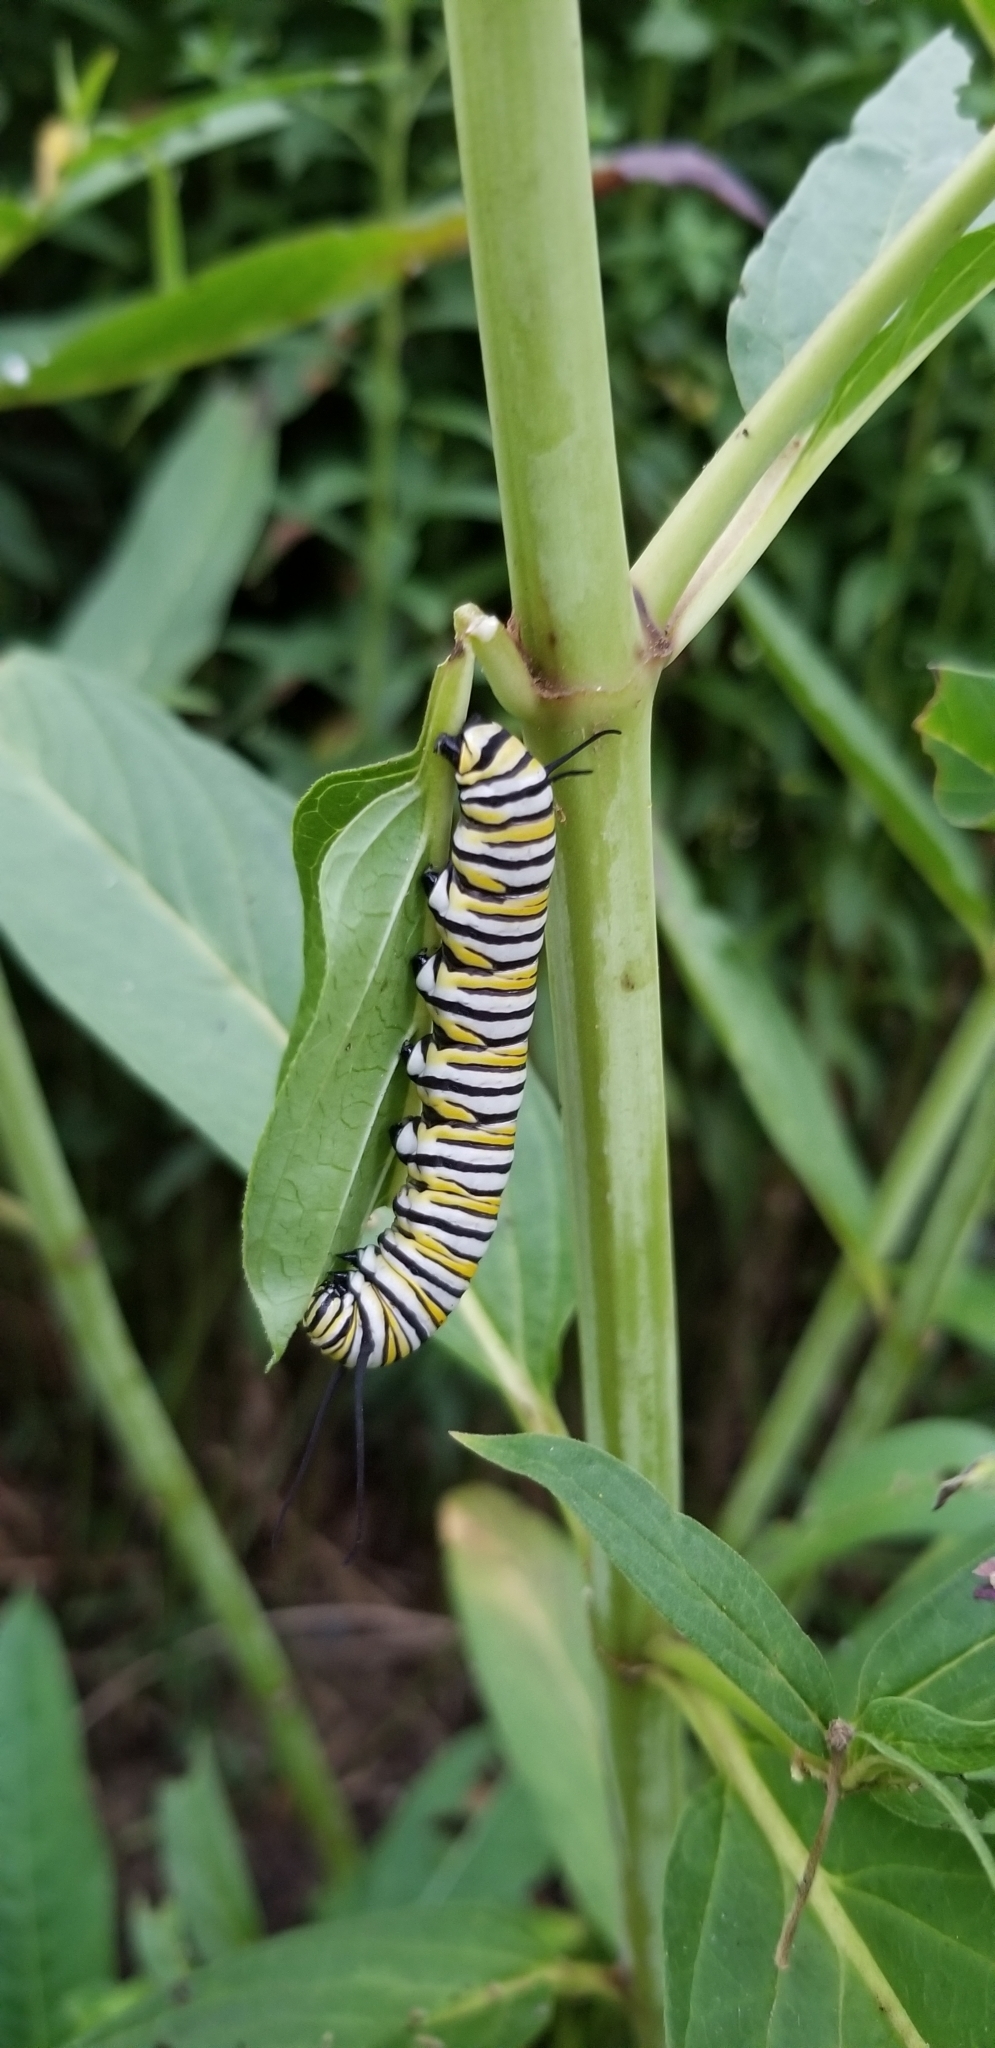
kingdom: Animalia
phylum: Arthropoda
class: Insecta
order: Lepidoptera
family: Nymphalidae
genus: Danaus
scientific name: Danaus plexippus
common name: Monarch
